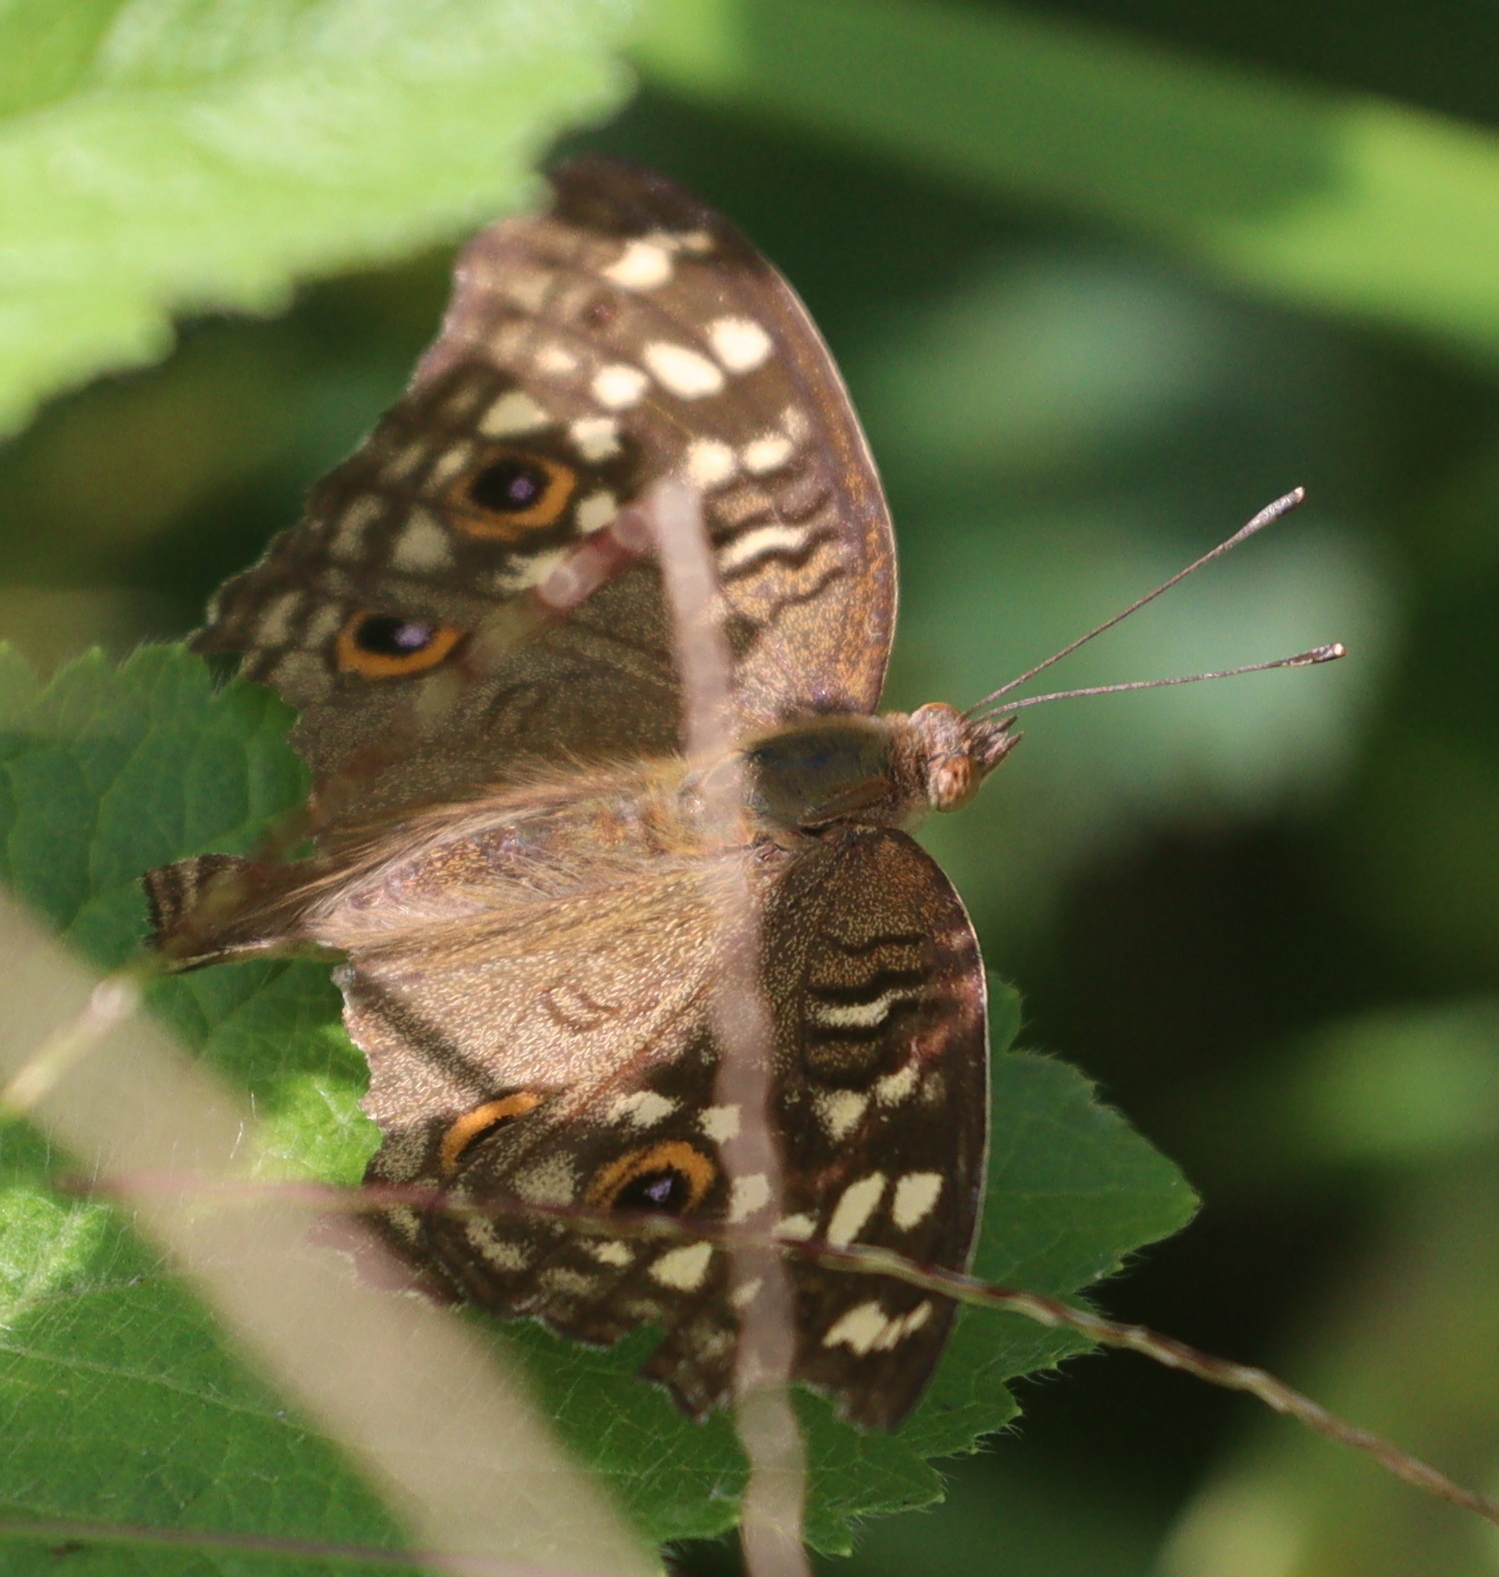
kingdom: Animalia
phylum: Arthropoda
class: Insecta
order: Lepidoptera
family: Nymphalidae
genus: Junonia
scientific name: Junonia lemonias
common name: Lemon pansy
